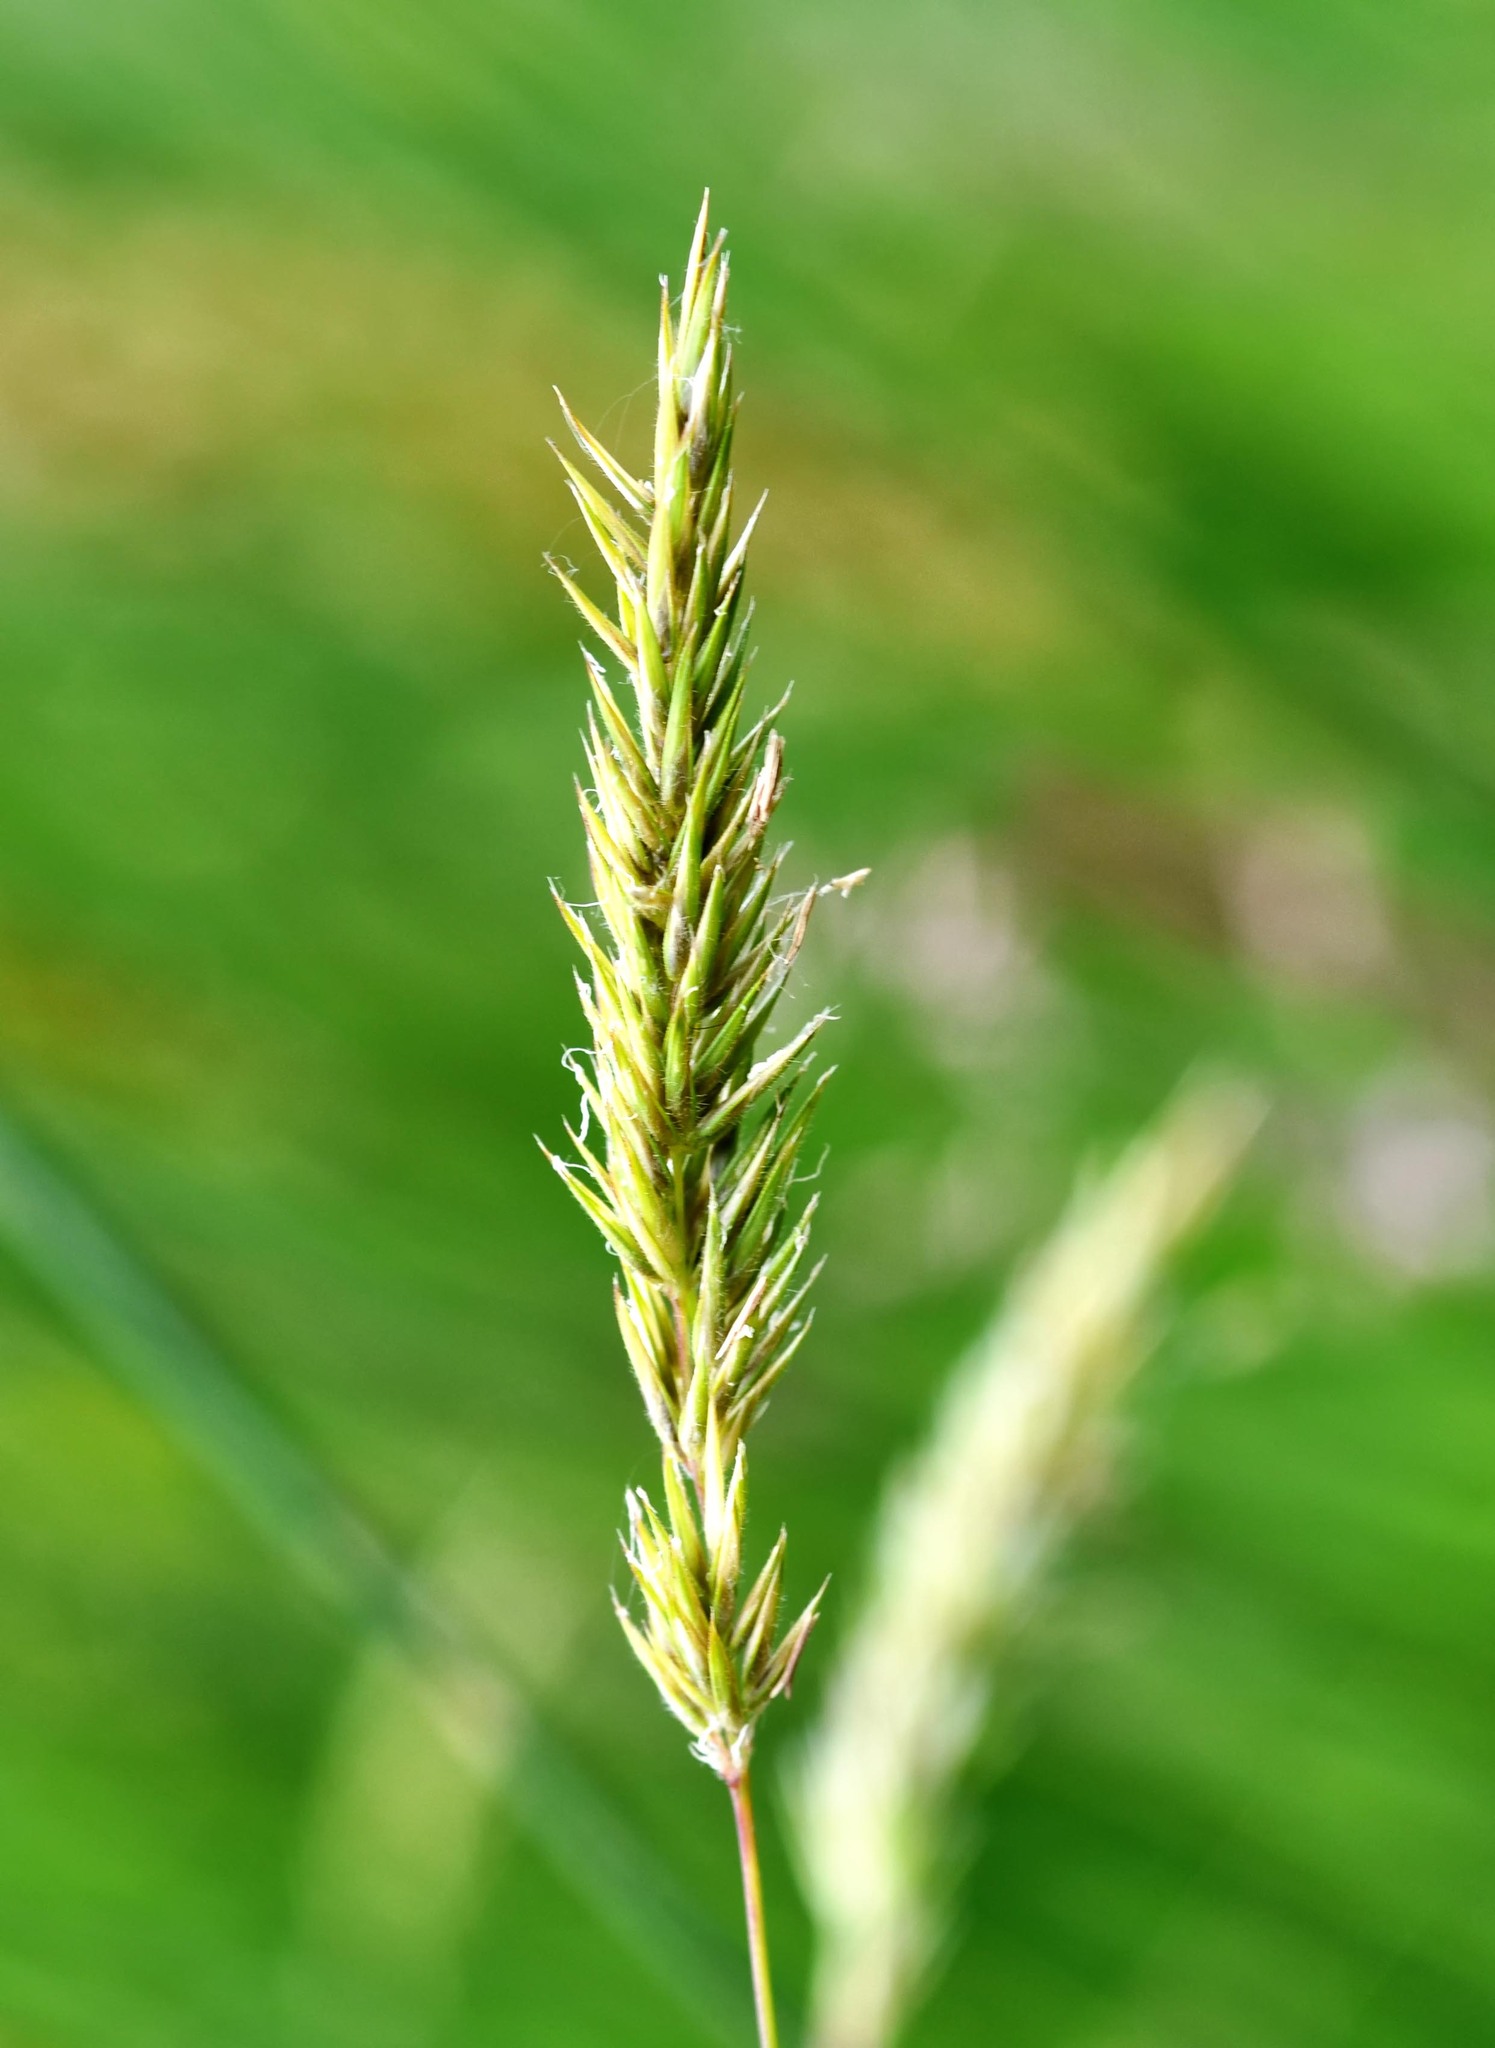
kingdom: Plantae
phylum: Tracheophyta
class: Liliopsida
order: Poales
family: Poaceae
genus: Anthoxanthum
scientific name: Anthoxanthum odoratum
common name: Sweet vernalgrass
